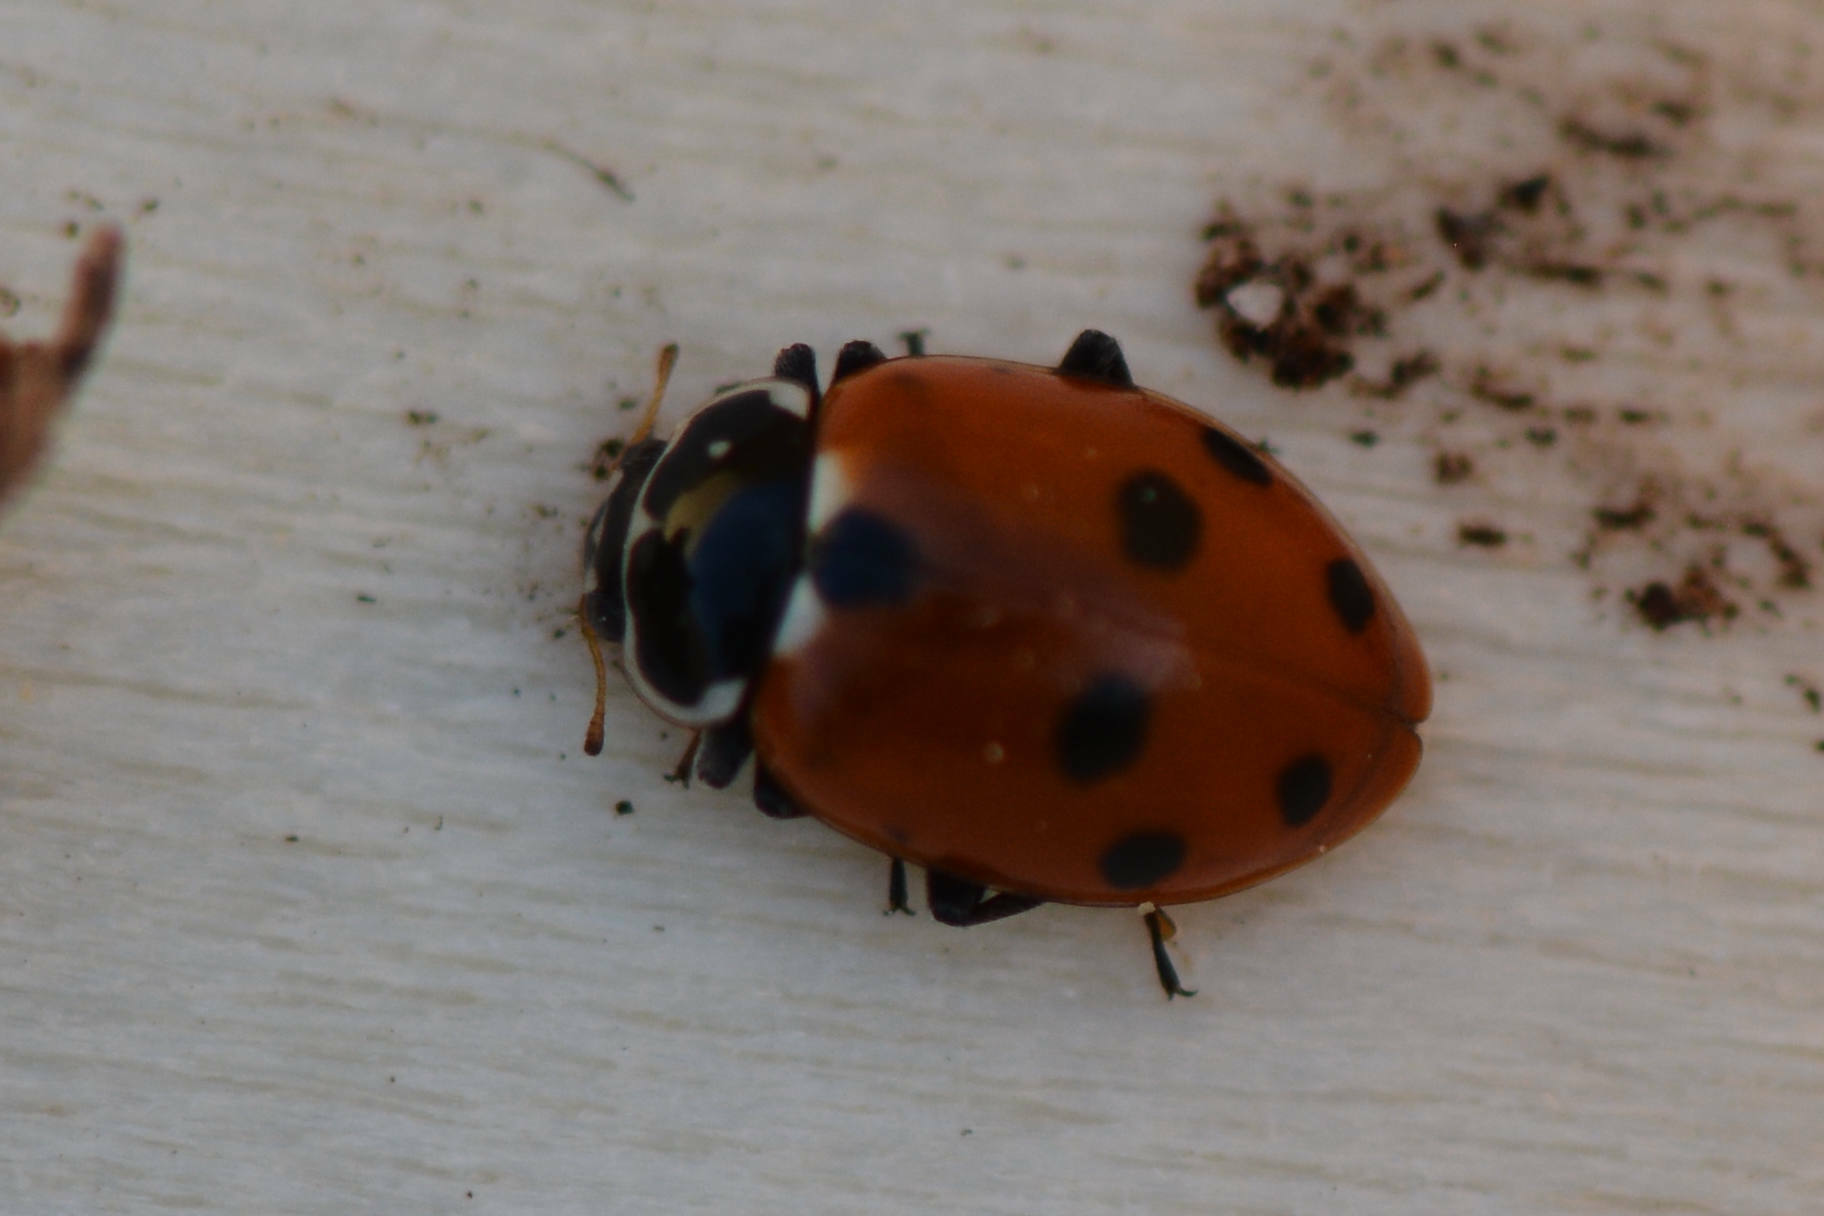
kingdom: Animalia
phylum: Arthropoda
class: Insecta
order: Coleoptera
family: Coccinellidae
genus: Hippodamia
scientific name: Hippodamia variegata
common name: Ladybird beetle
